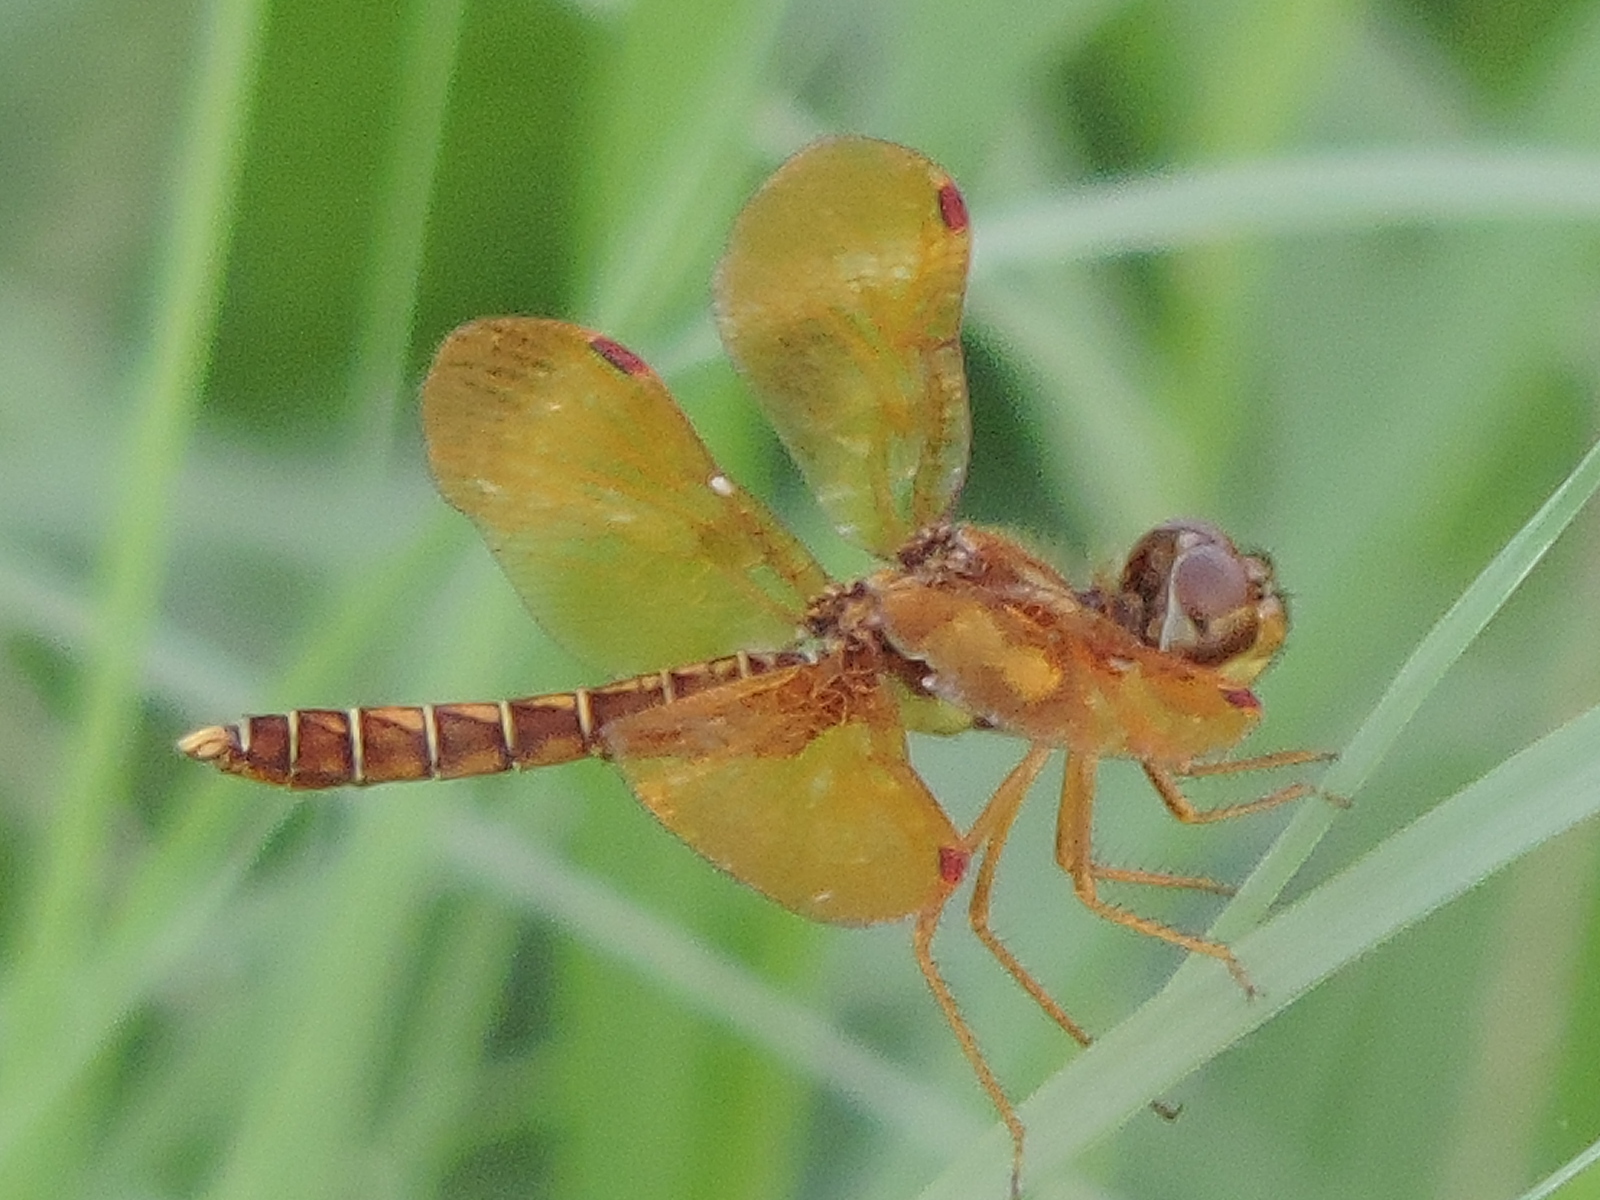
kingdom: Animalia
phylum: Arthropoda
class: Insecta
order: Odonata
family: Libellulidae
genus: Perithemis
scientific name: Perithemis tenera
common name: Eastern amberwing
